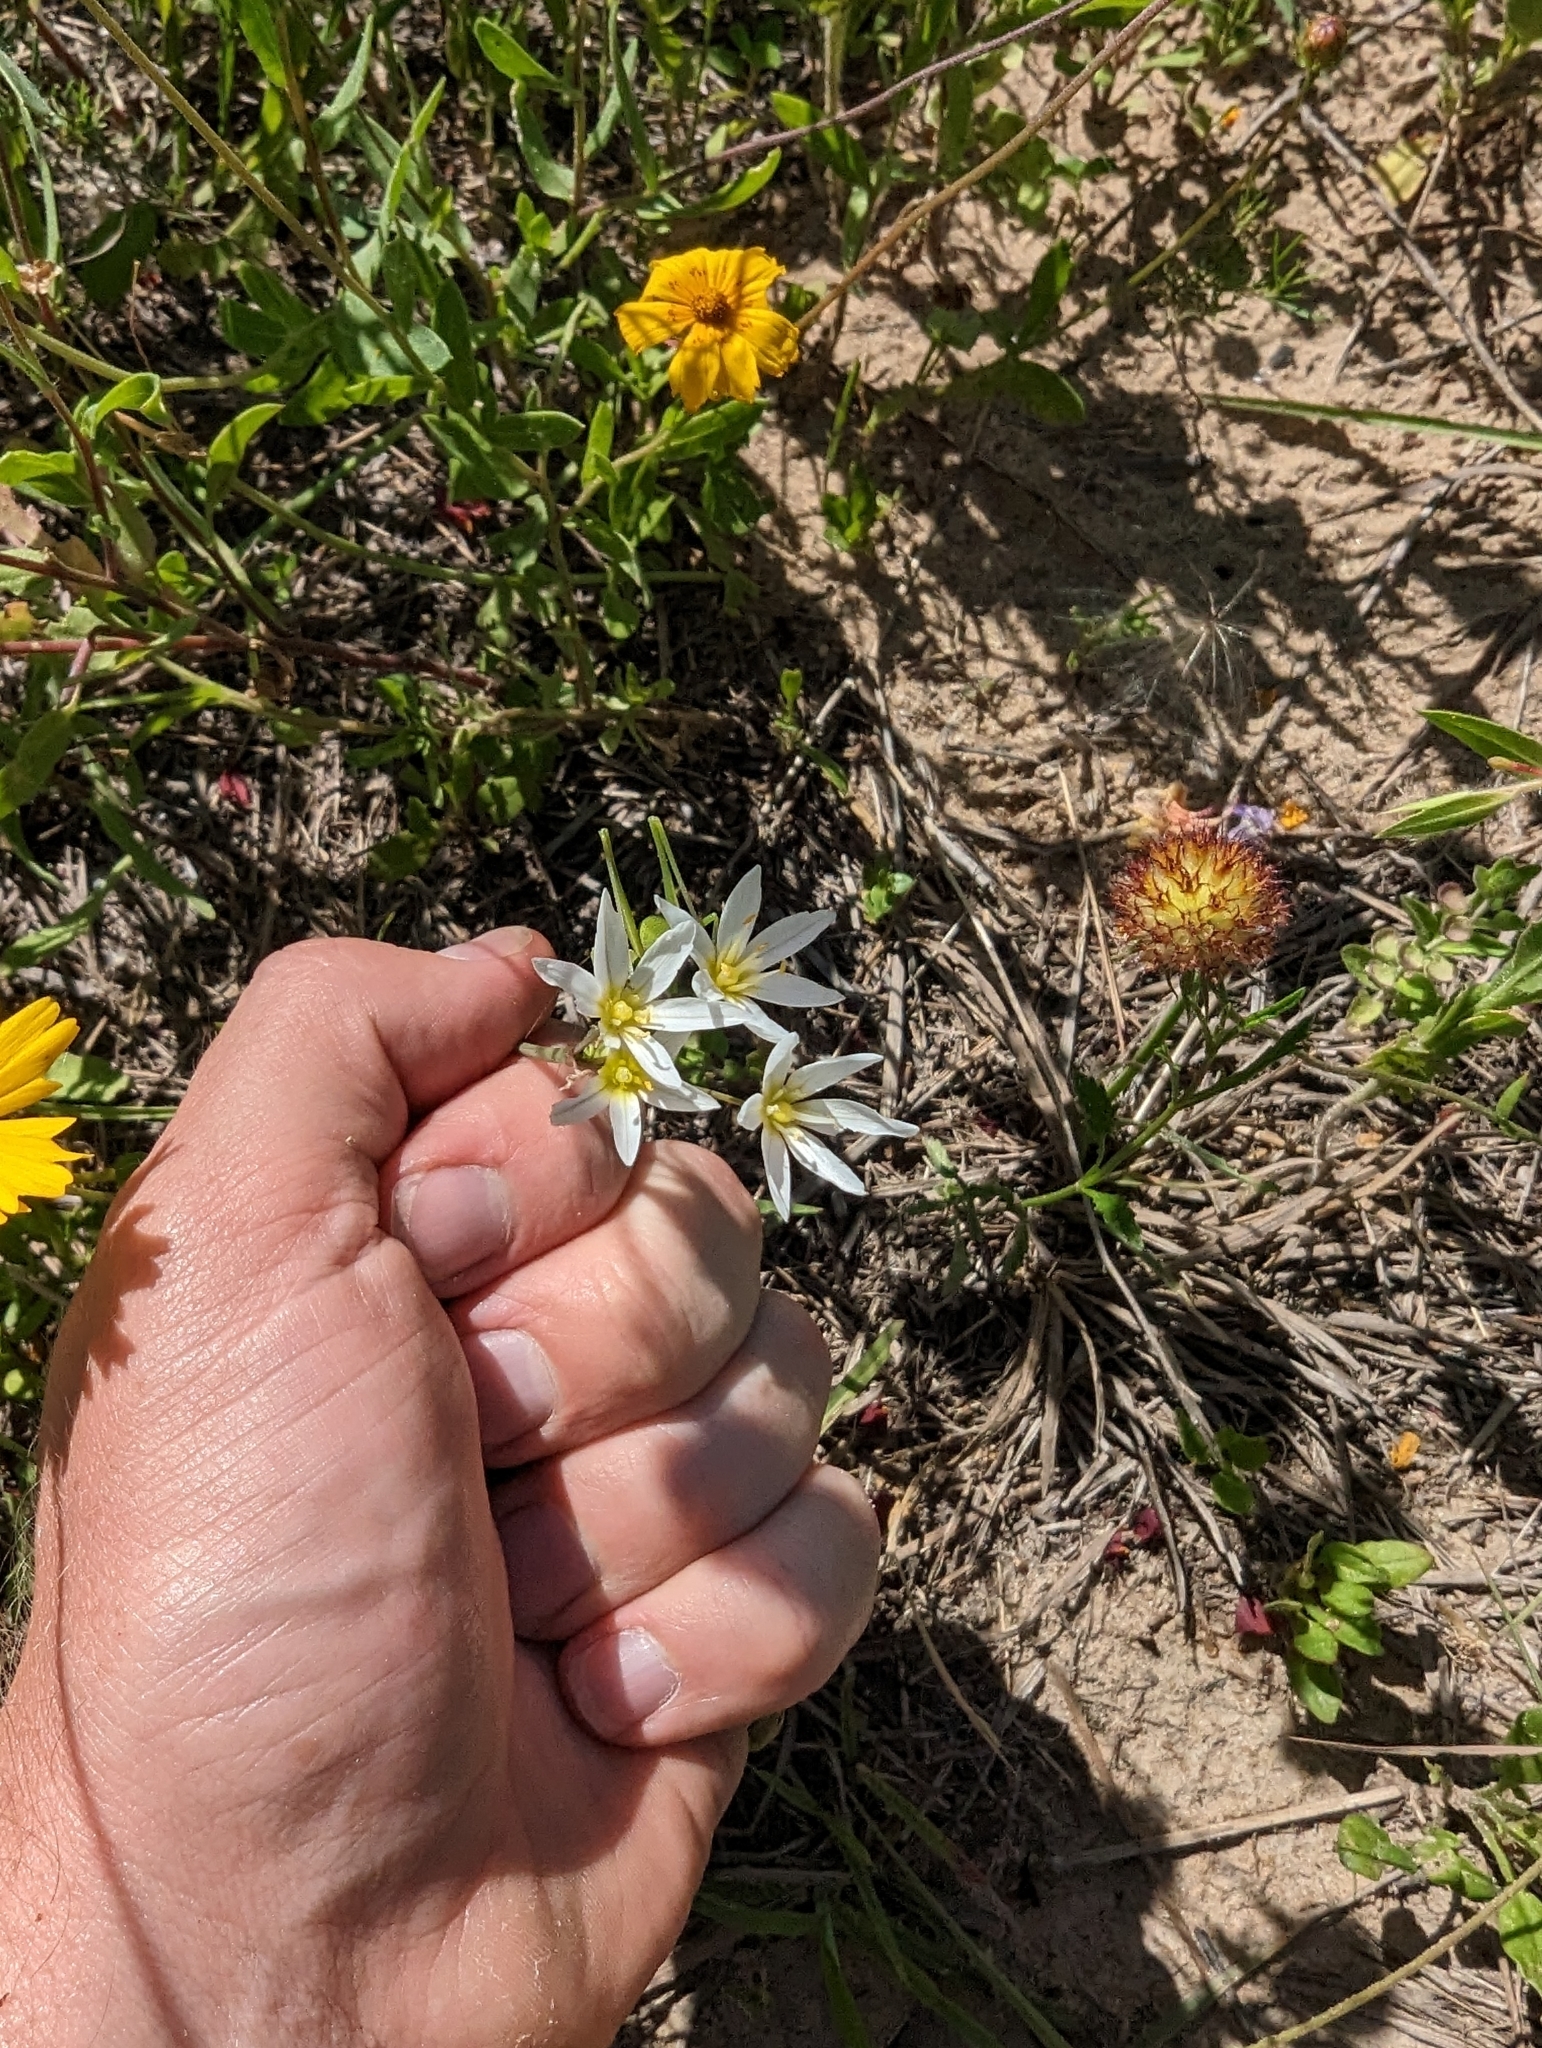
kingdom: Plantae
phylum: Tracheophyta
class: Liliopsida
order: Asparagales
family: Amaryllidaceae
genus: Nothoscordum
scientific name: Nothoscordum bivalve
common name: Crow-poison
